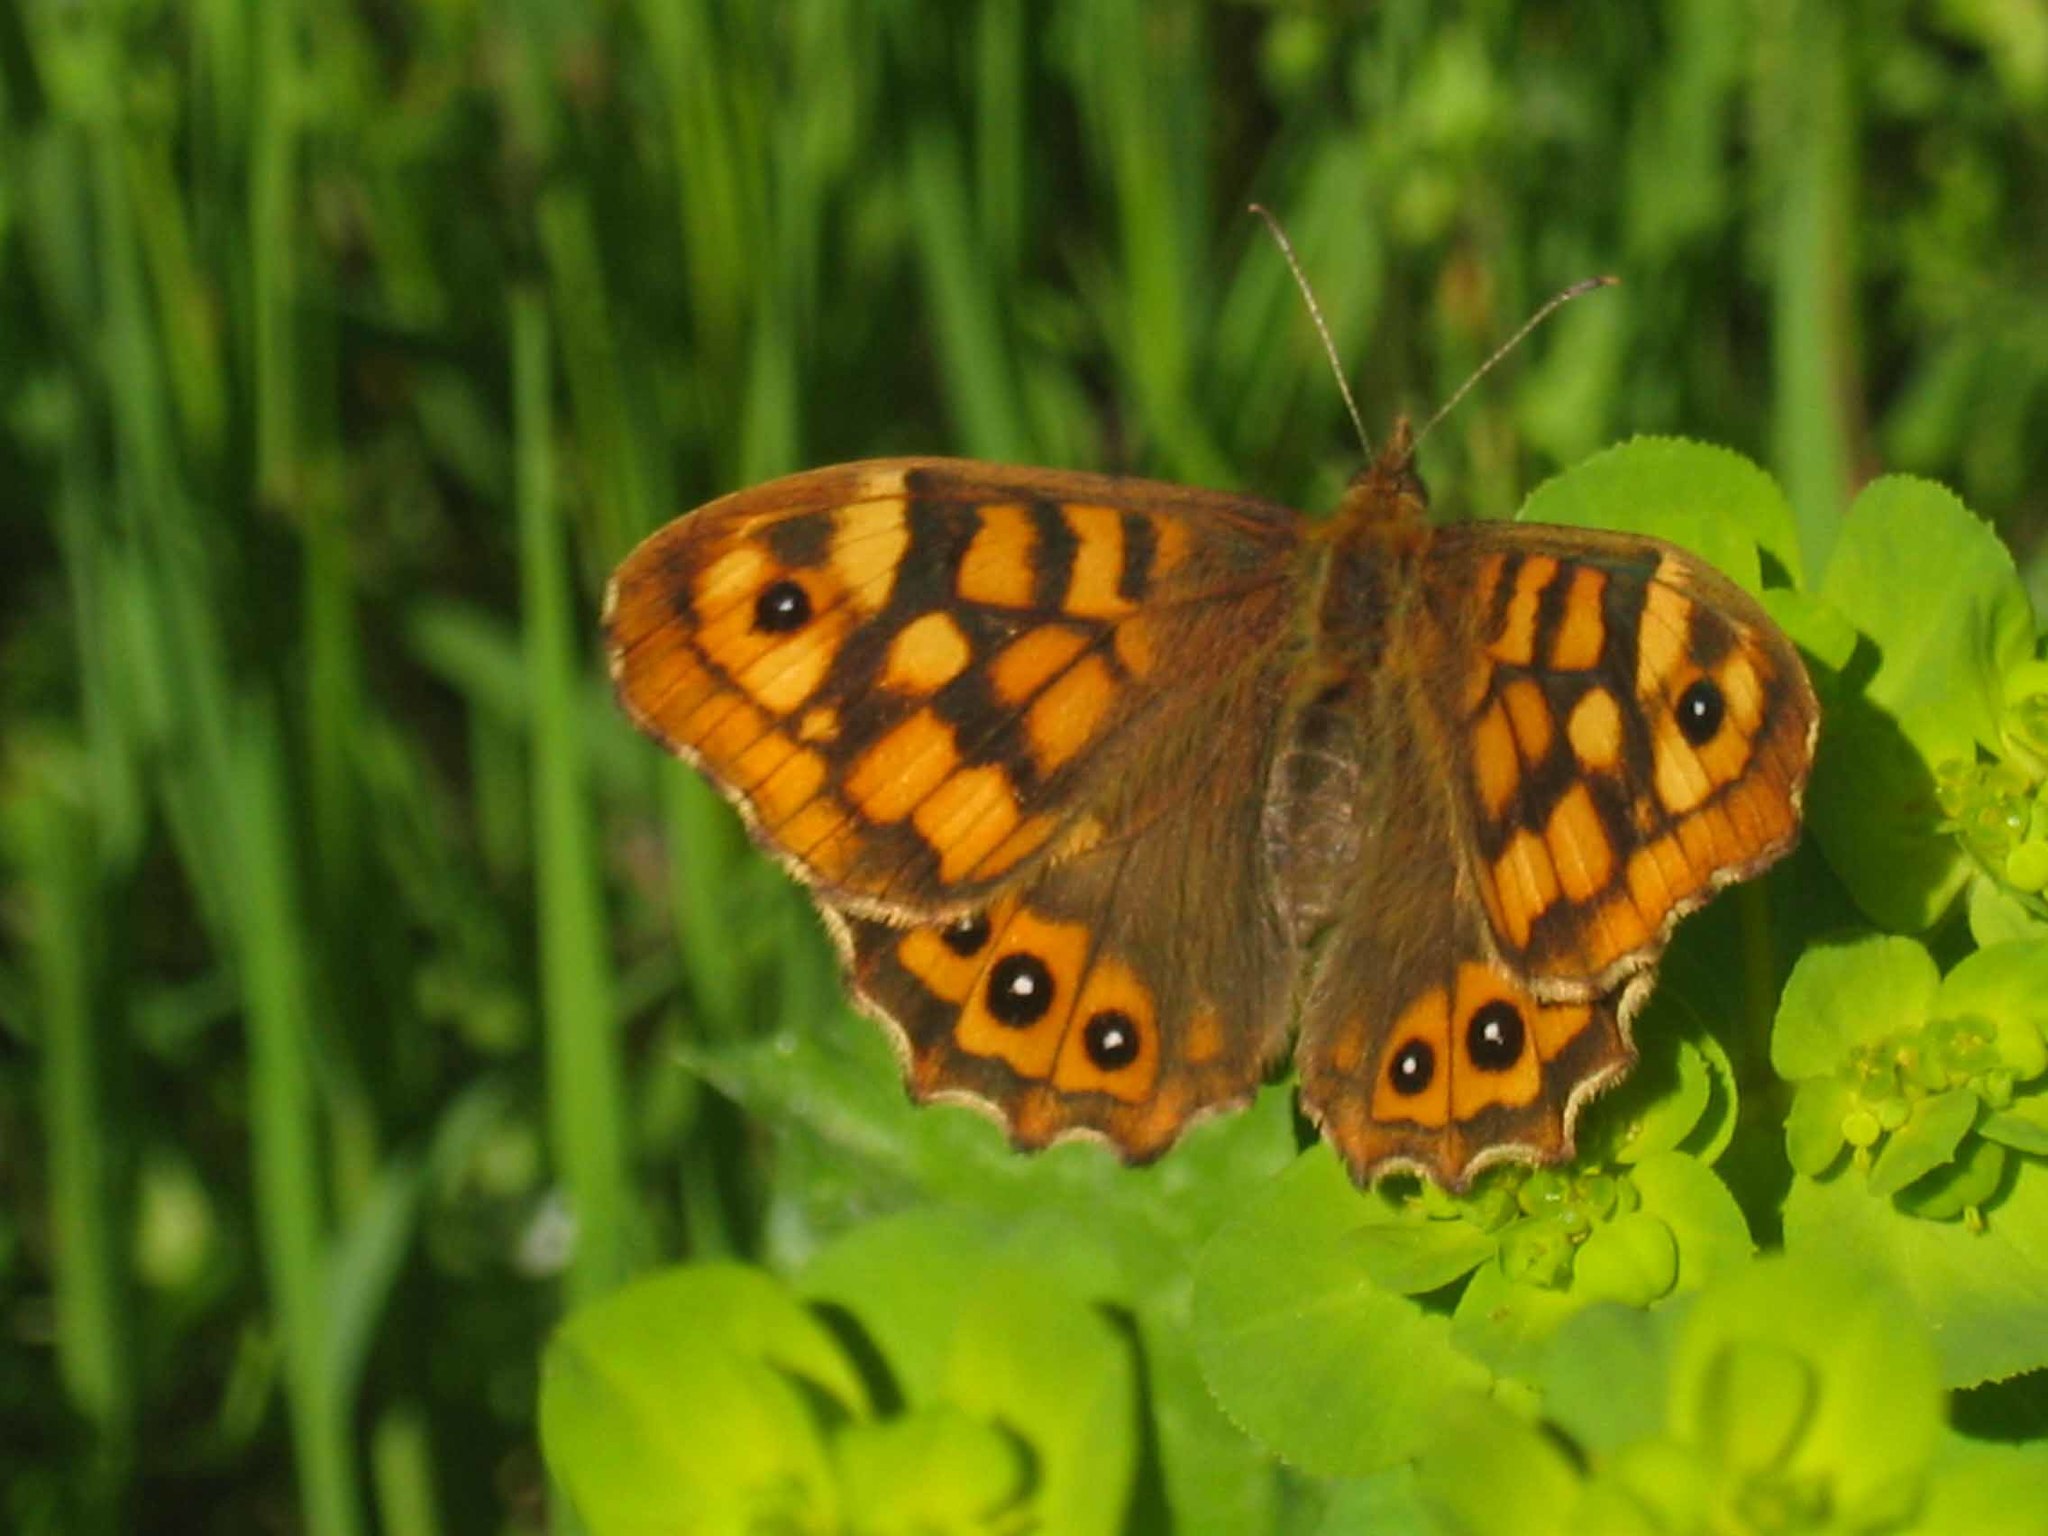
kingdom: Animalia
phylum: Arthropoda
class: Insecta
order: Lepidoptera
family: Nymphalidae
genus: Pararge
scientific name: Pararge aegeria
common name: Speckled wood
